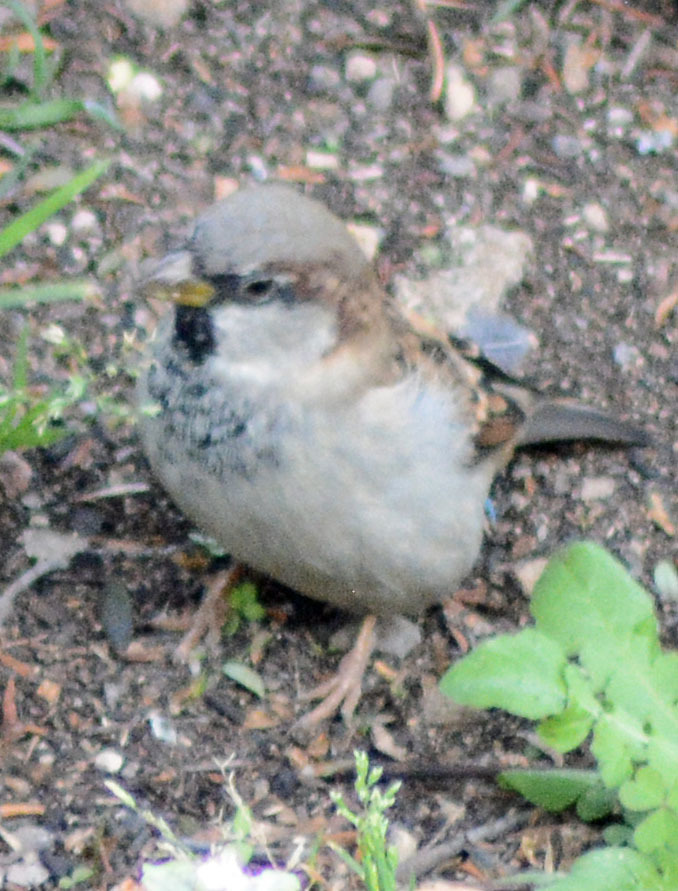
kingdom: Animalia
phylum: Chordata
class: Aves
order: Passeriformes
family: Passeridae
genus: Passer
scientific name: Passer domesticus
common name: House sparrow
